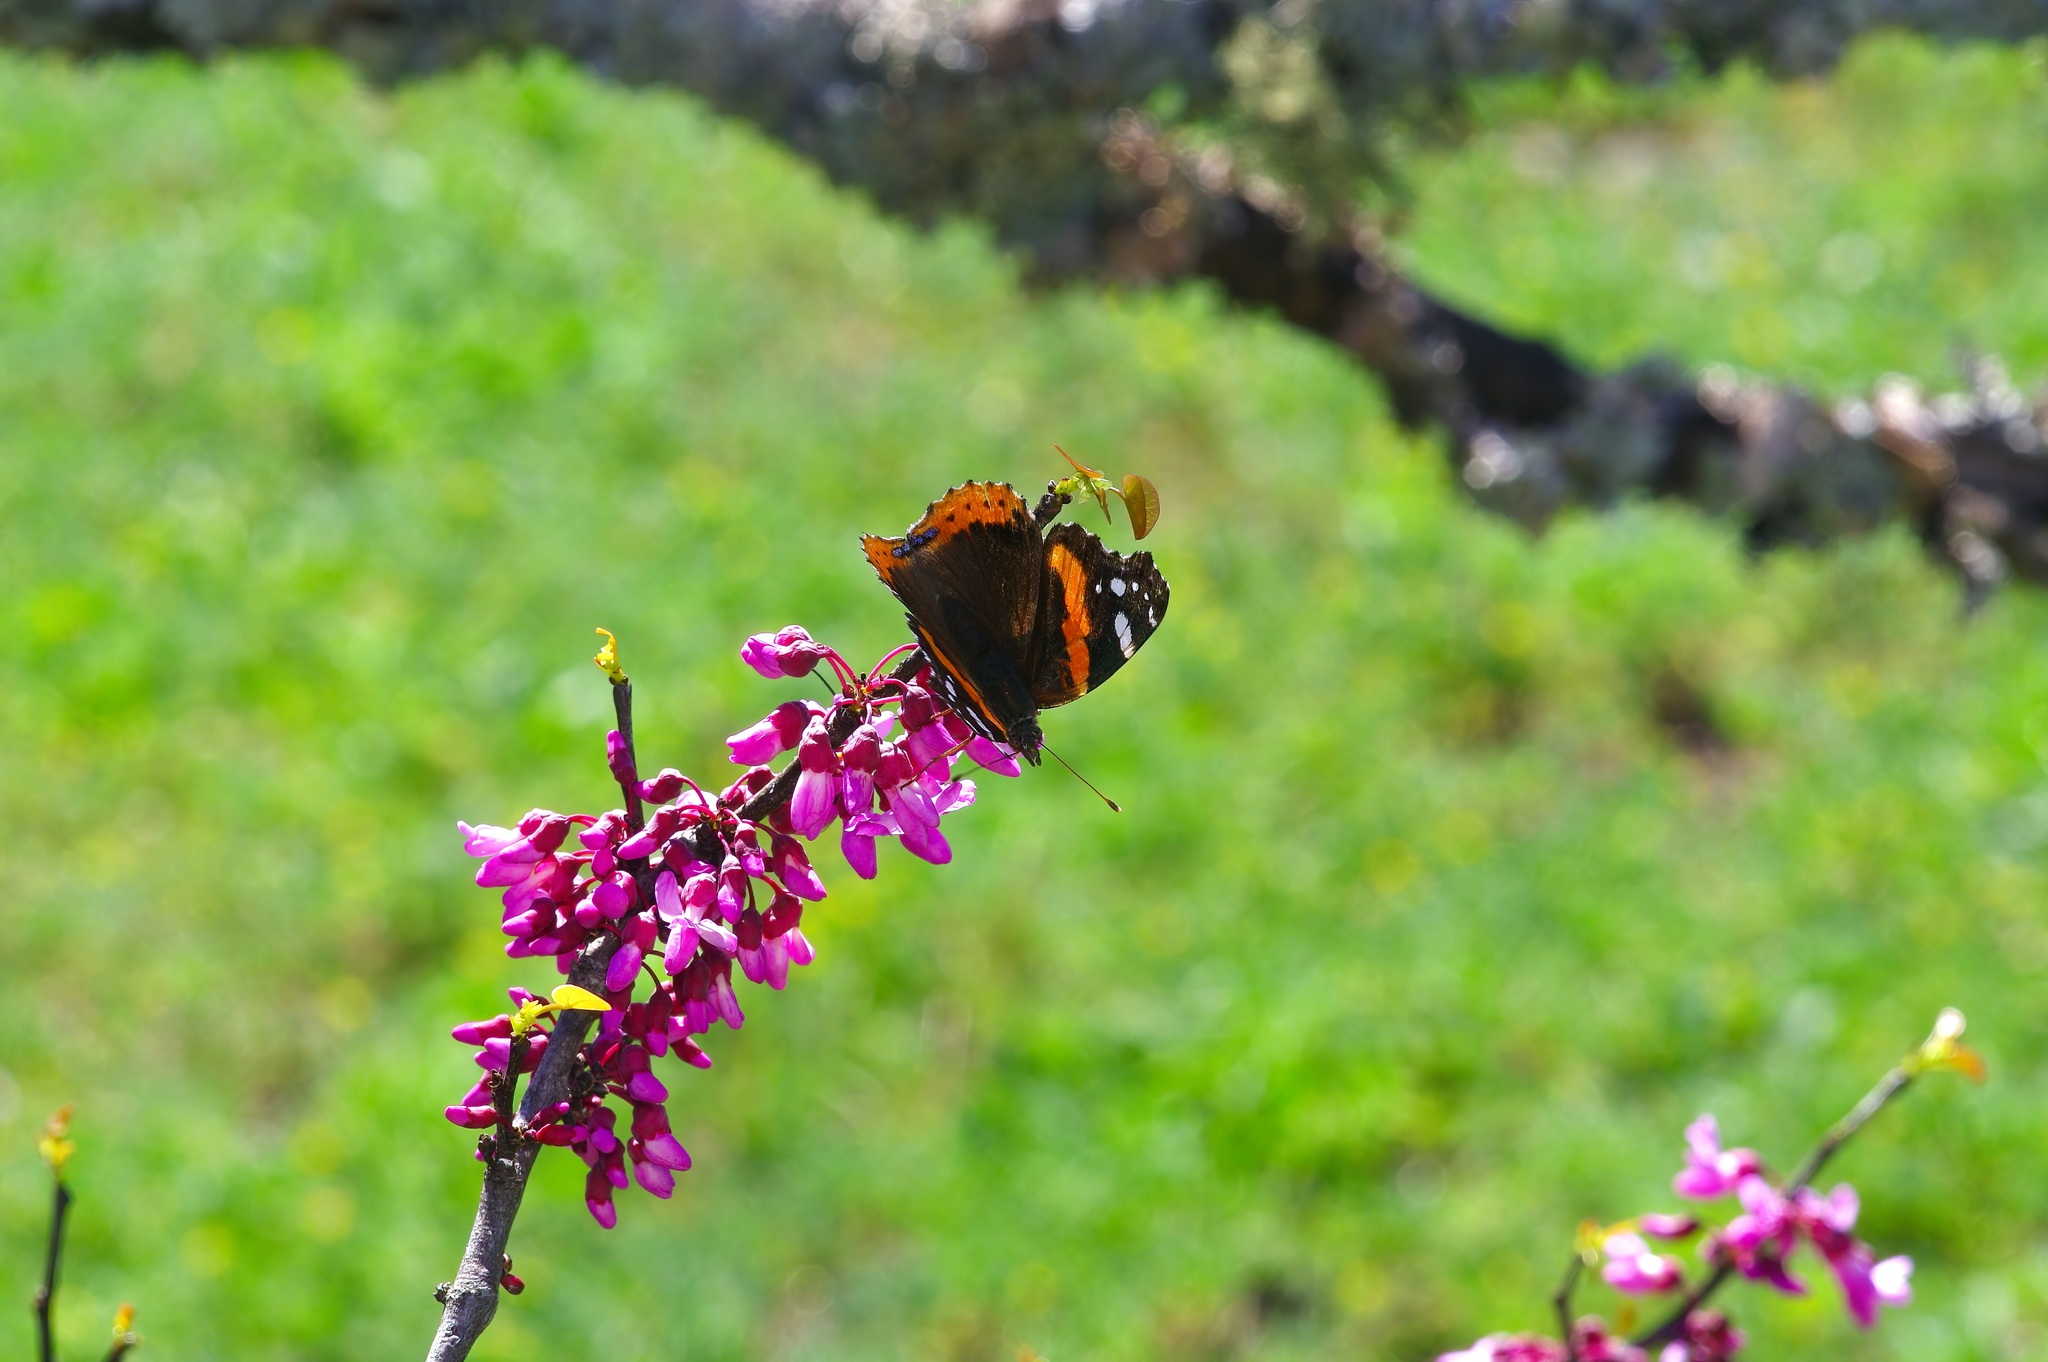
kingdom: Animalia
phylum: Arthropoda
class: Insecta
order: Lepidoptera
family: Nymphalidae
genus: Vanessa
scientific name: Vanessa atalanta
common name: Red admiral
